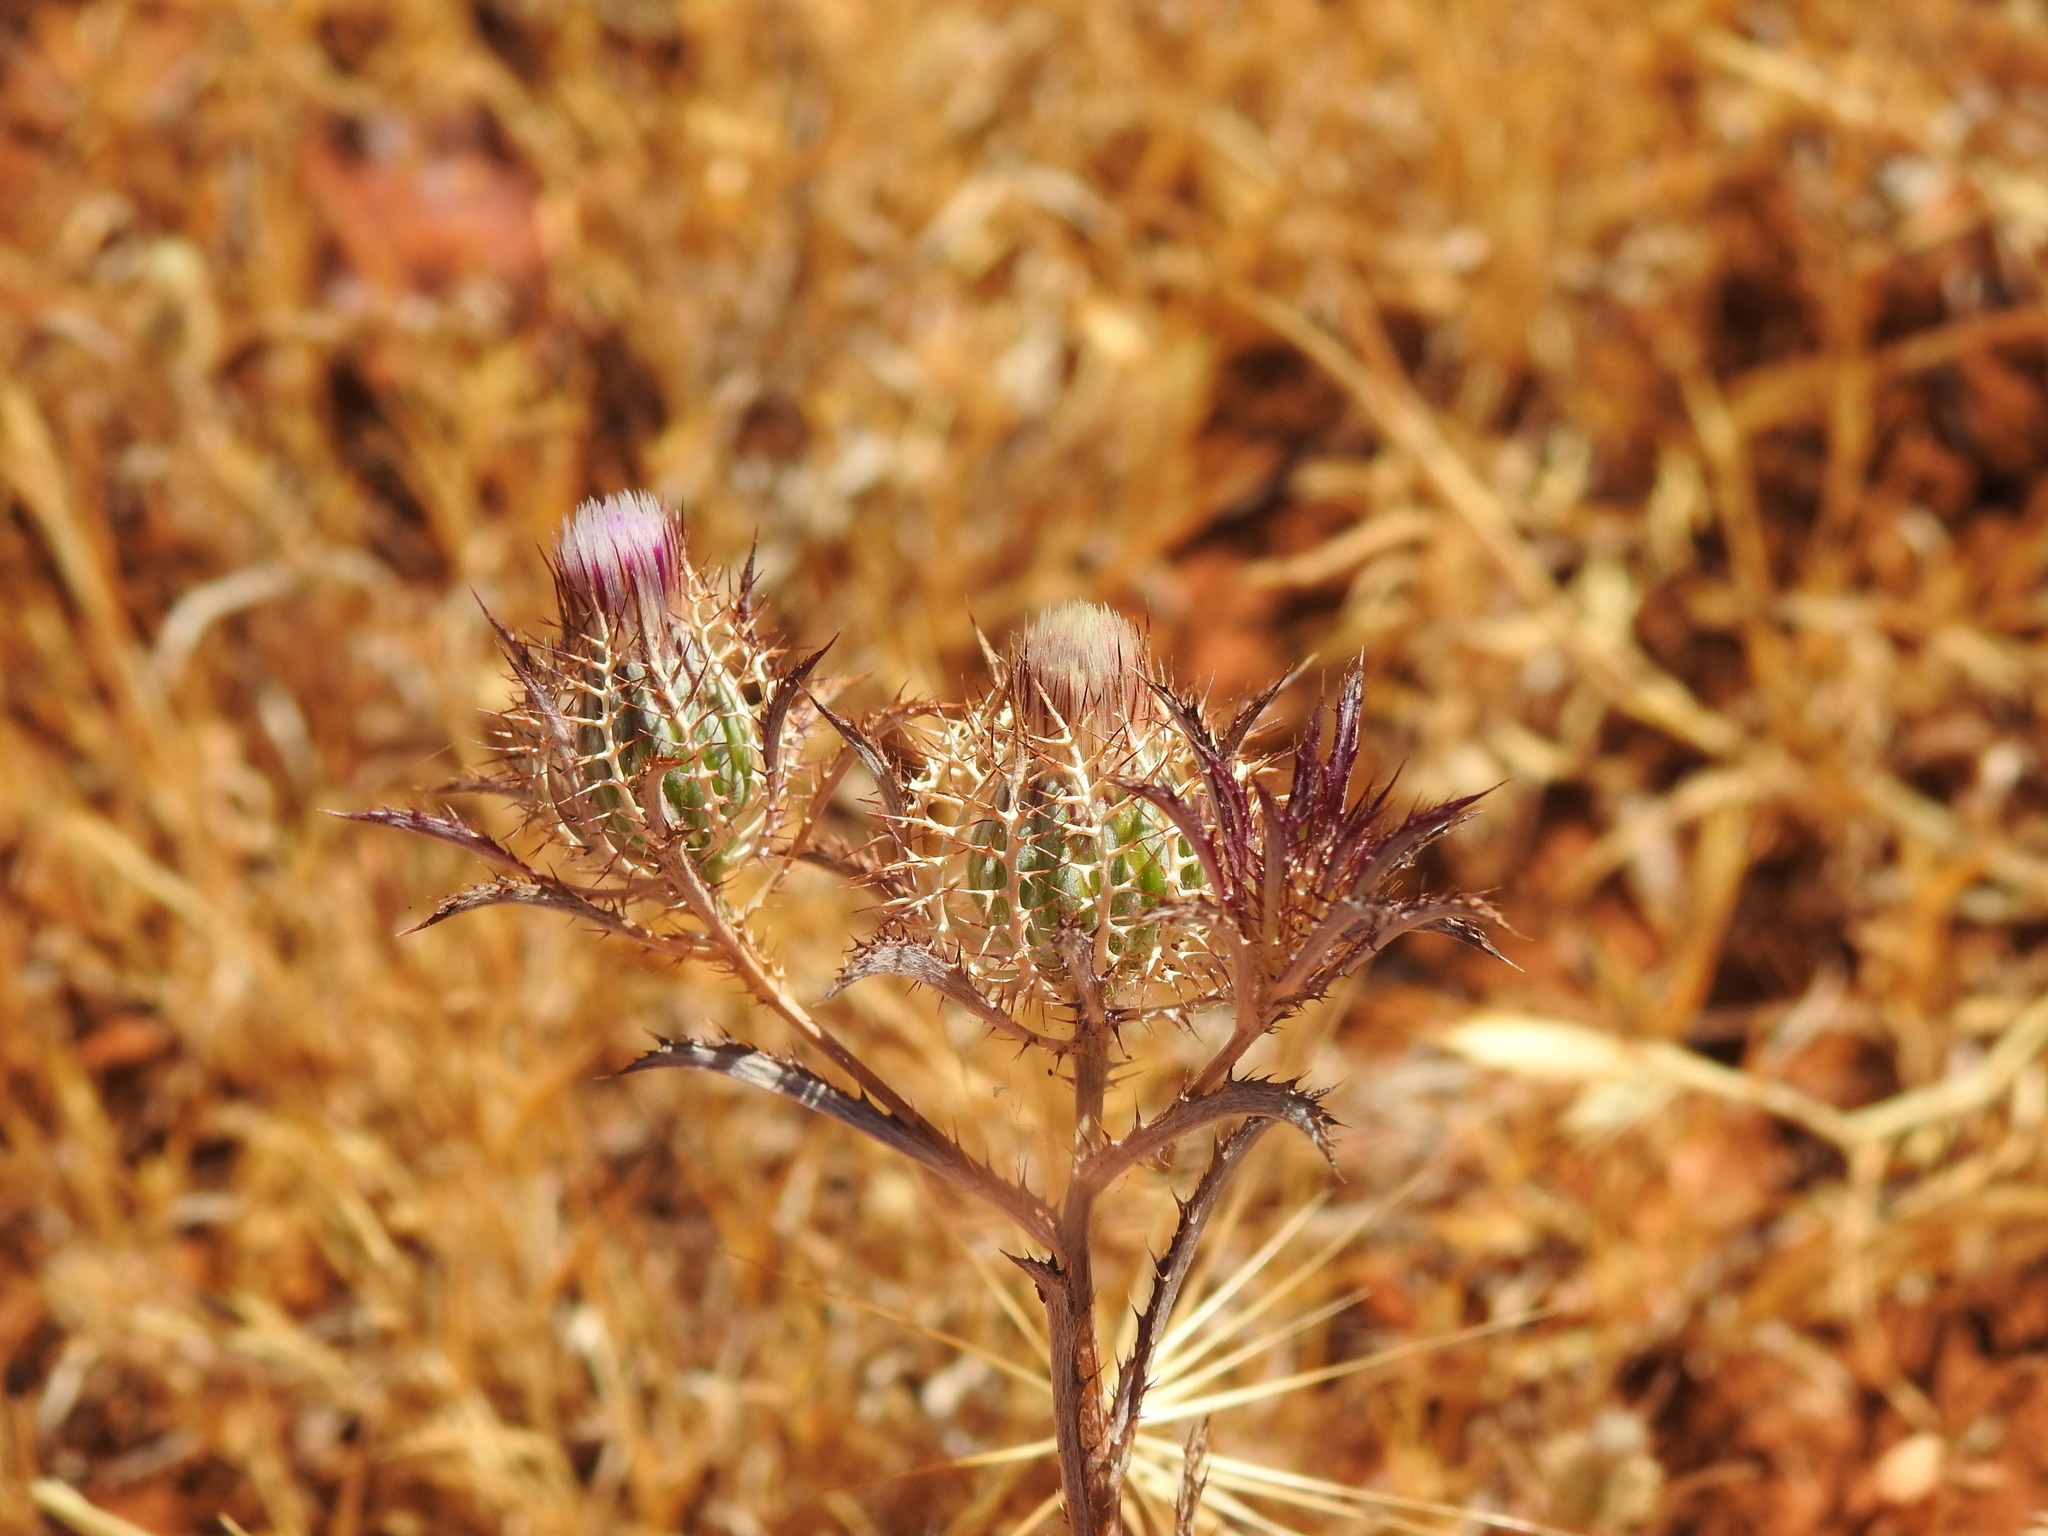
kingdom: Plantae
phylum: Tracheophyta
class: Magnoliopsida
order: Asterales
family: Asteraceae
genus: Atractylis
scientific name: Atractylis cancellata
